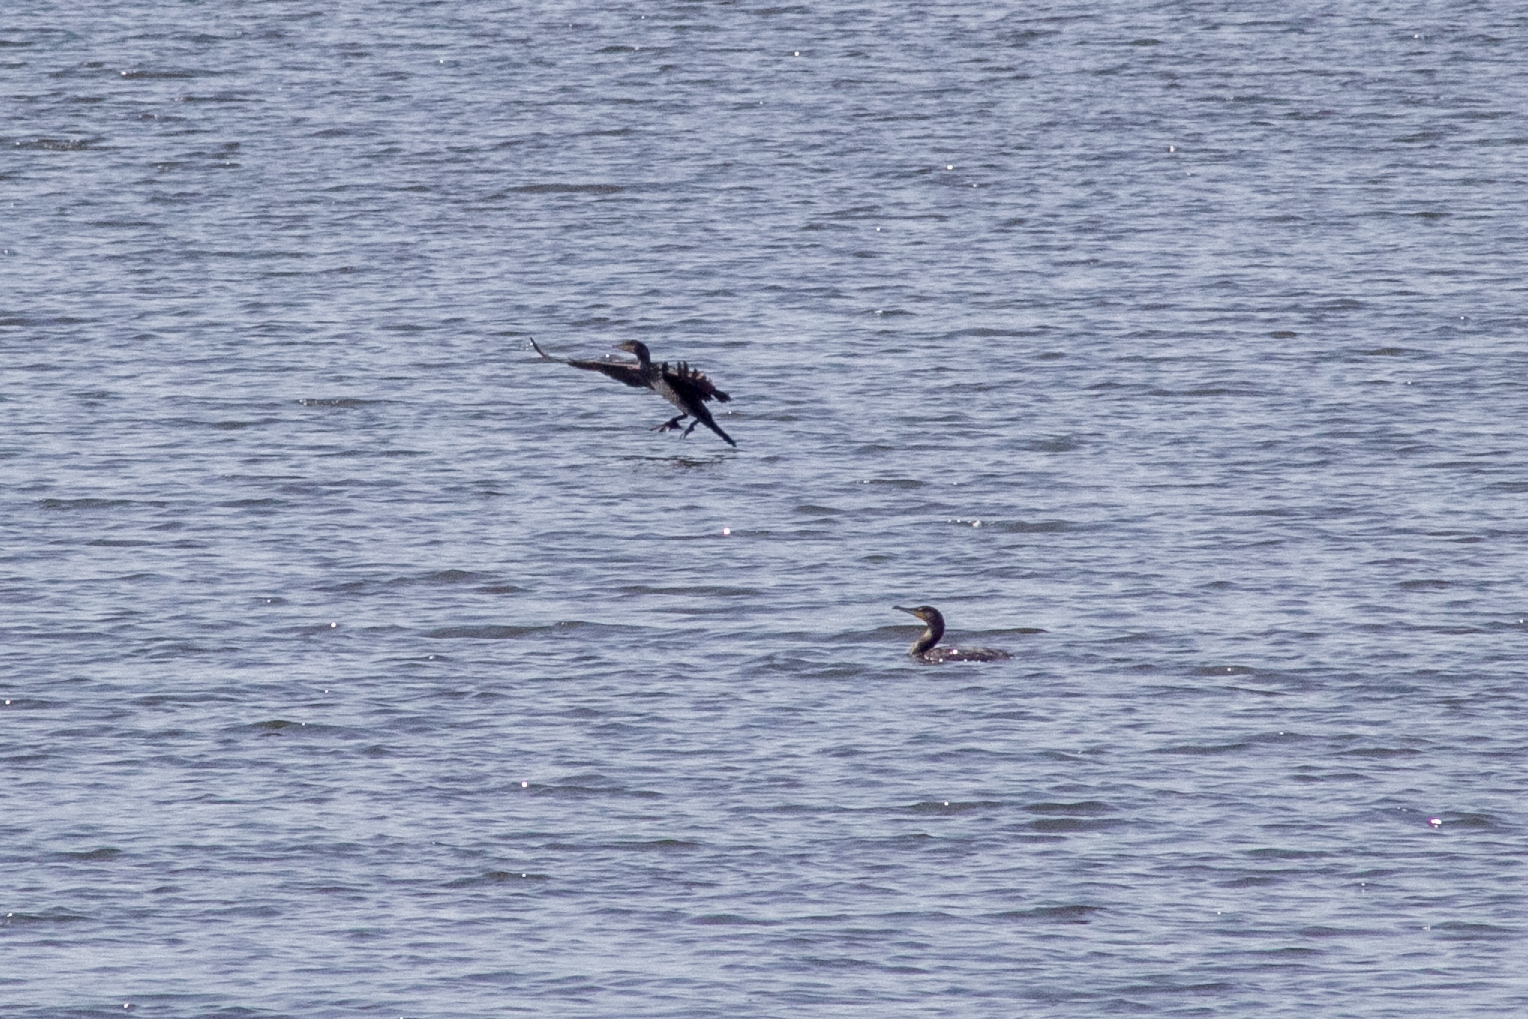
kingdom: Animalia
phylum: Chordata
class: Aves
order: Suliformes
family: Phalacrocoracidae
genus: Phalacrocorax
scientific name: Phalacrocorax carbo
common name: Great cormorant
